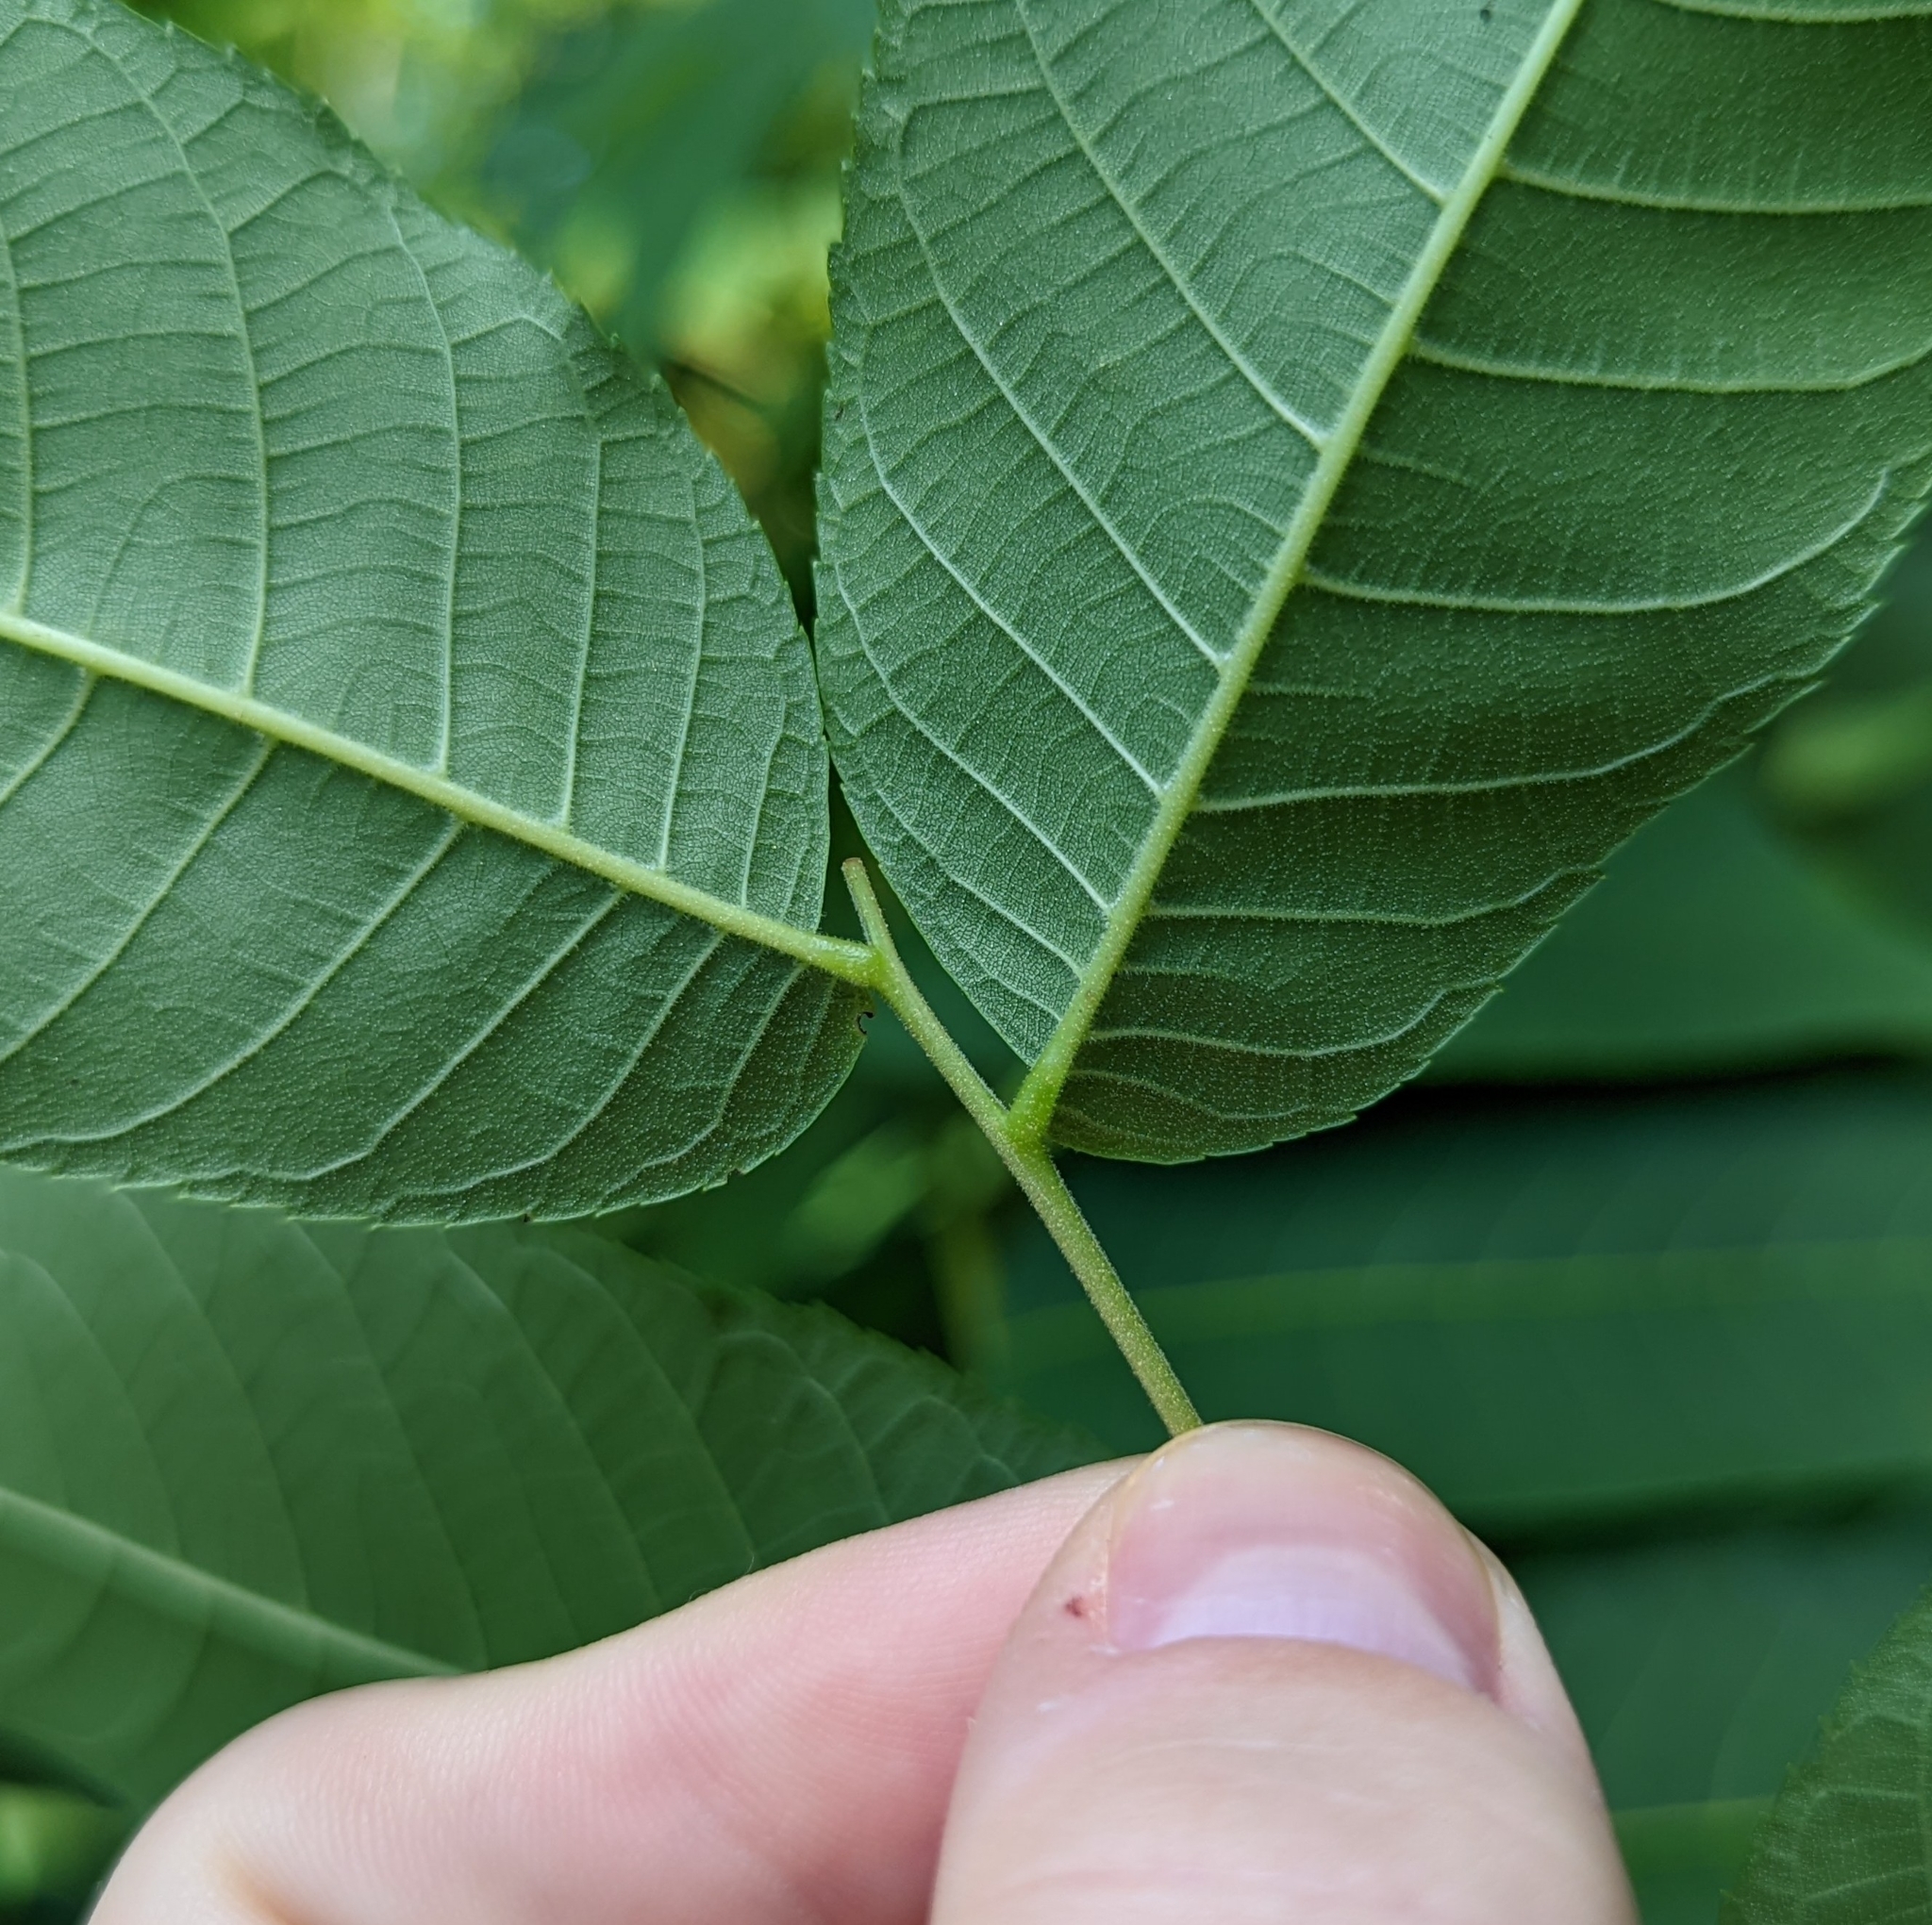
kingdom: Plantae
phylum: Tracheophyta
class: Magnoliopsida
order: Fagales
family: Juglandaceae
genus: Juglans
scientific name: Juglans nigra
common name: Black walnut
